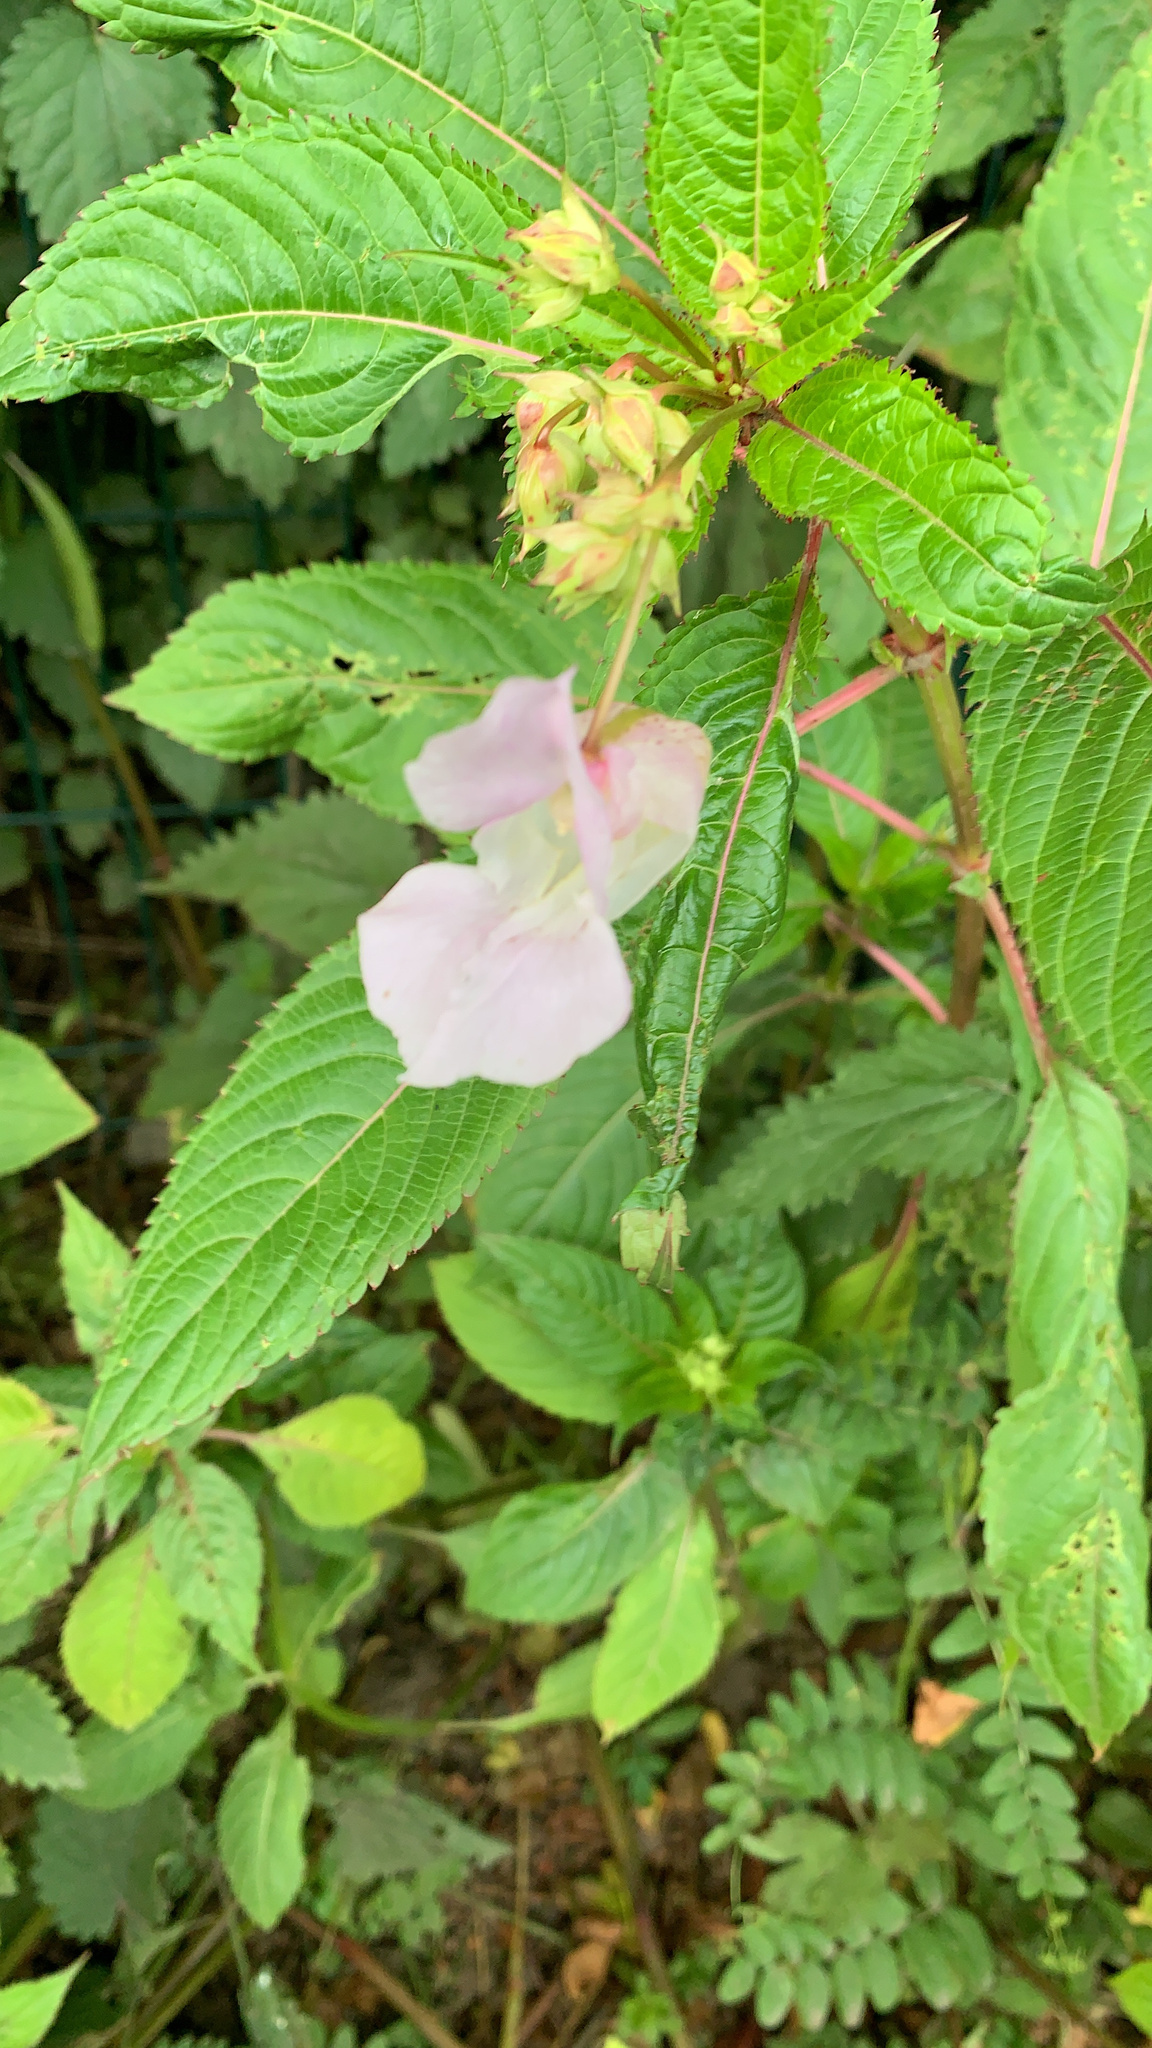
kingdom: Plantae
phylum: Tracheophyta
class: Magnoliopsida
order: Ericales
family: Balsaminaceae
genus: Impatiens
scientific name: Impatiens glandulifera
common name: Himalayan balsam
